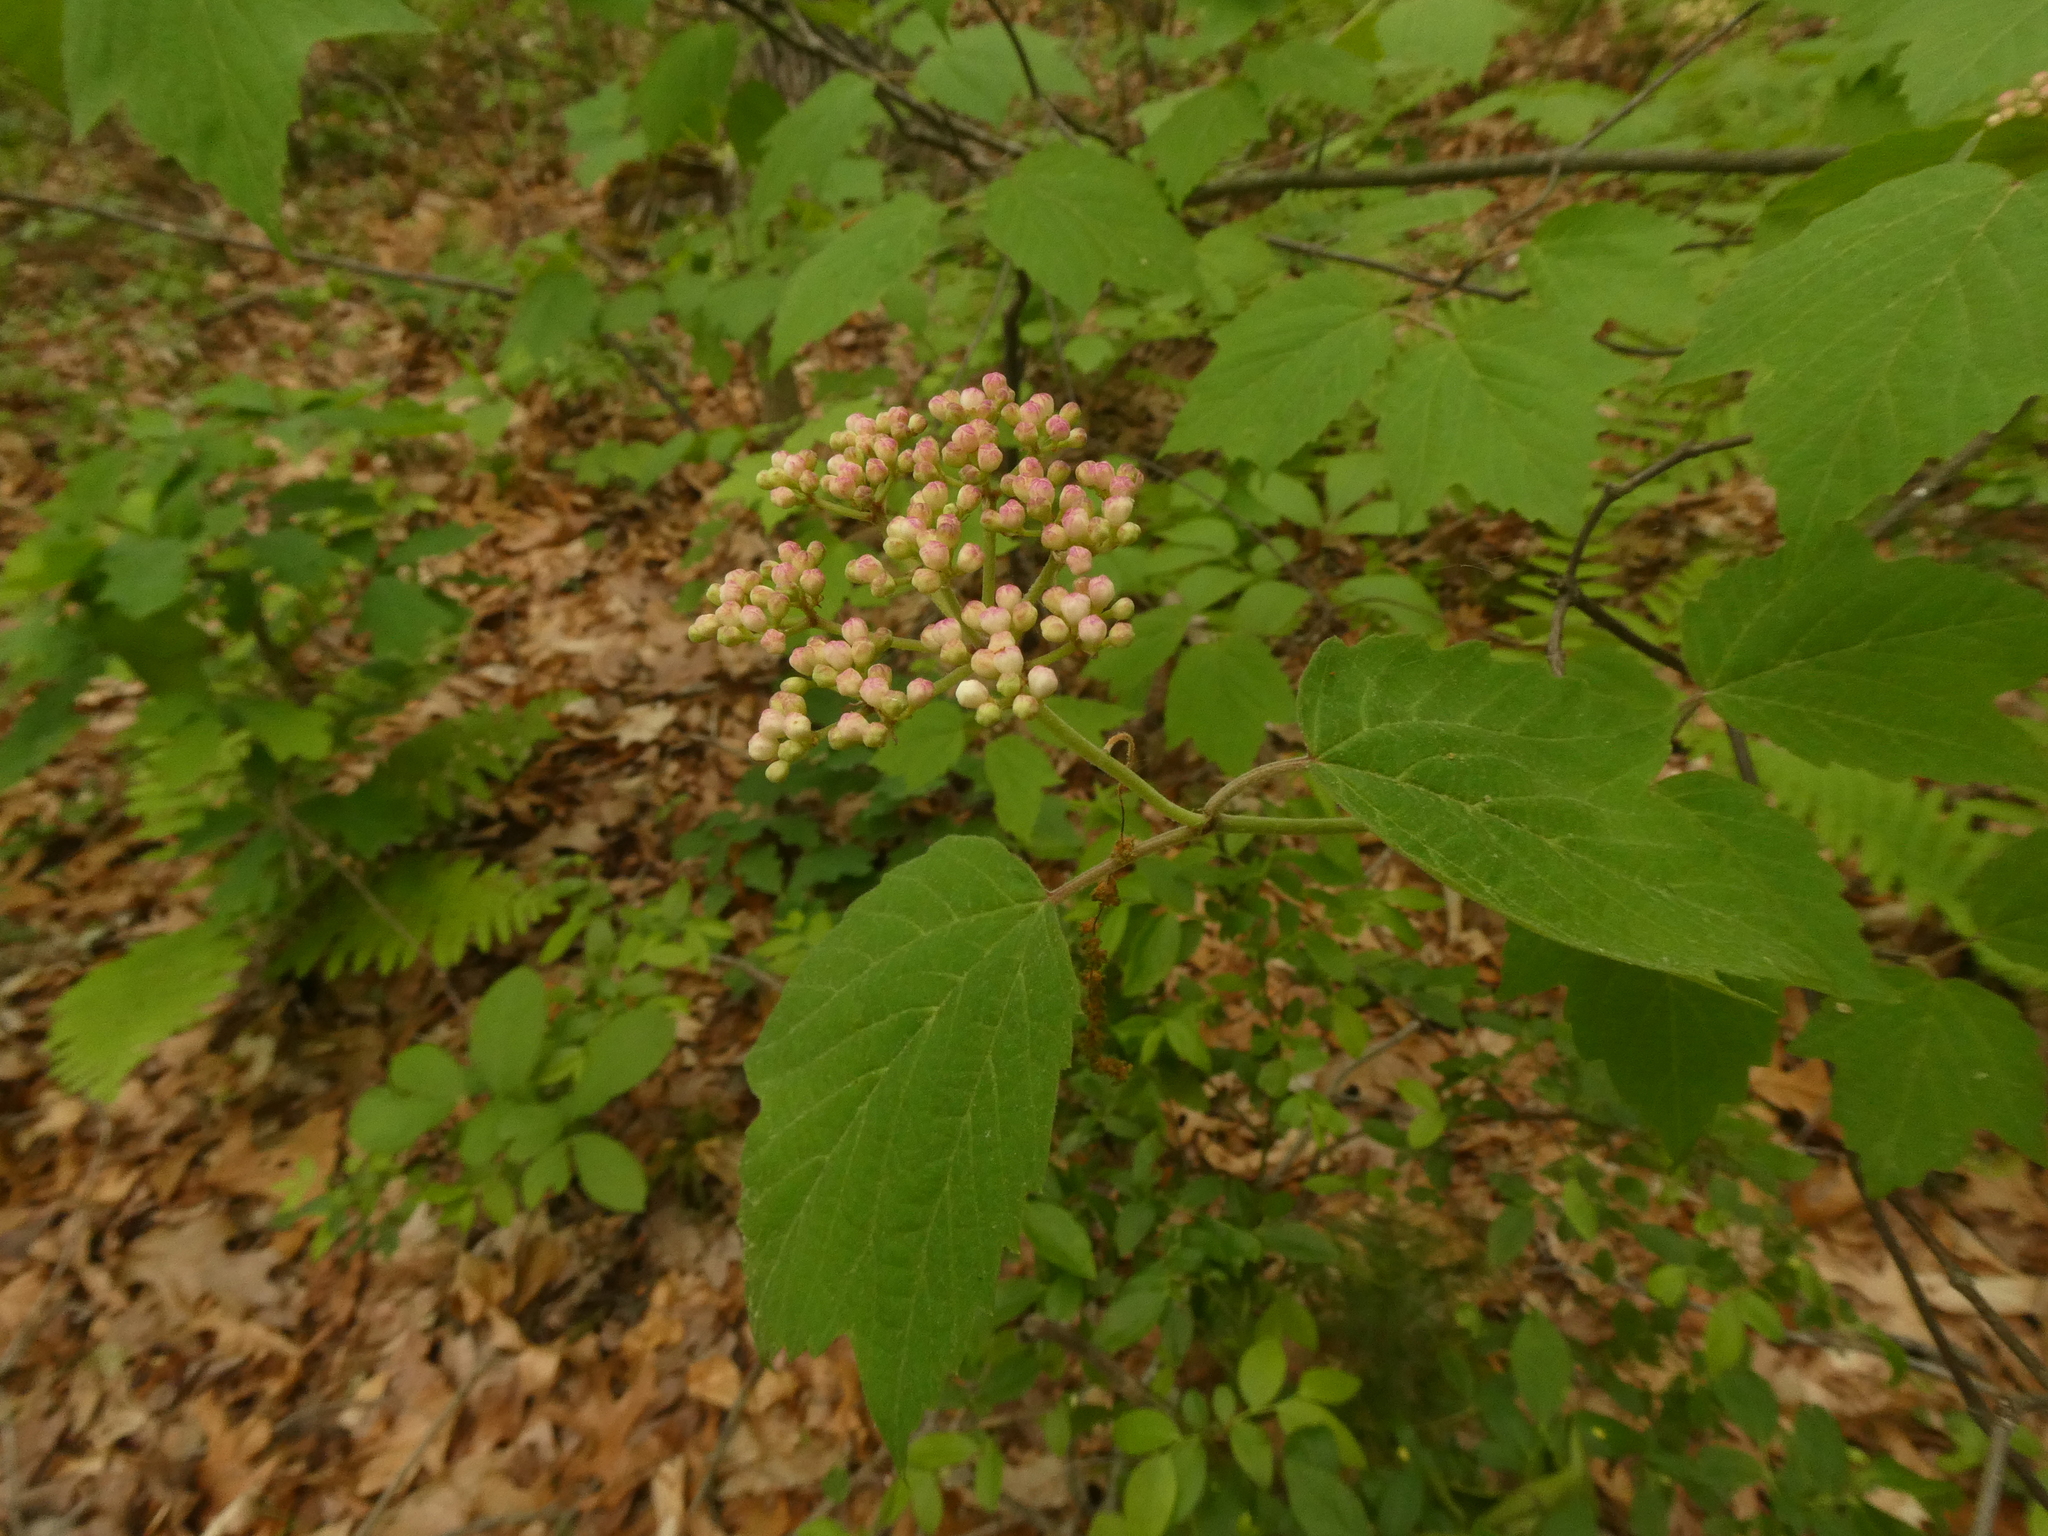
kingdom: Plantae
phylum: Tracheophyta
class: Magnoliopsida
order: Dipsacales
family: Viburnaceae
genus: Viburnum
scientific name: Viburnum acerifolium
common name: Dockmackie
